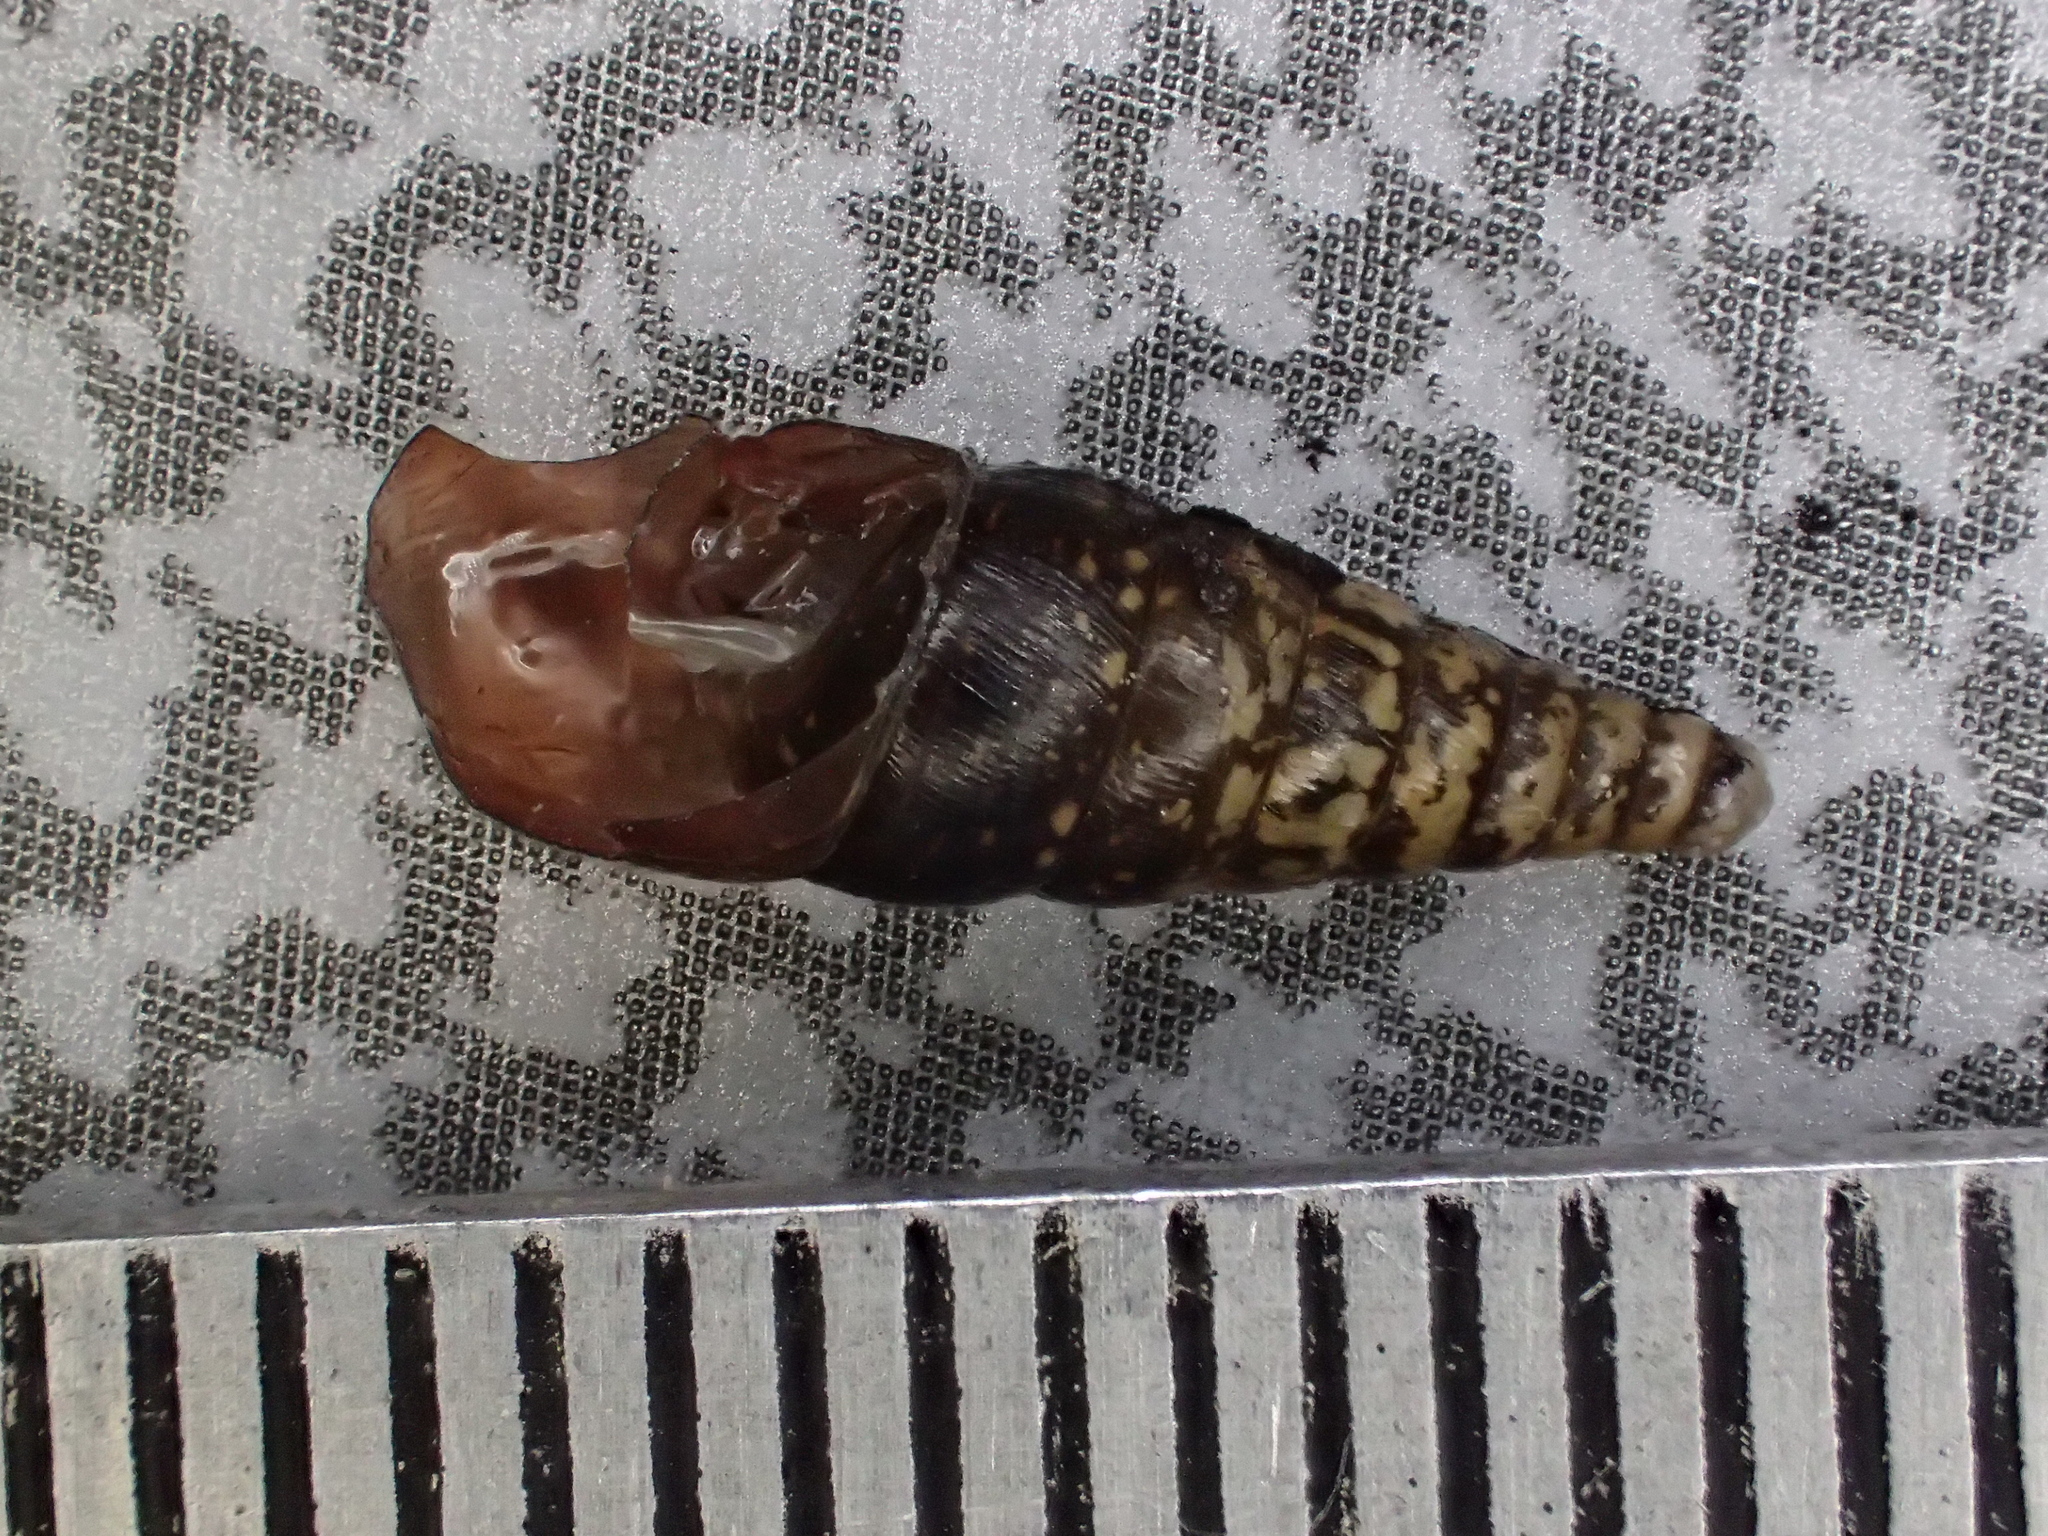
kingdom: Animalia
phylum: Mollusca
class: Gastropoda
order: Stylommatophora
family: Clausiliidae
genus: Cochlodina
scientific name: Cochlodina laminata
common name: Plaited door snail
